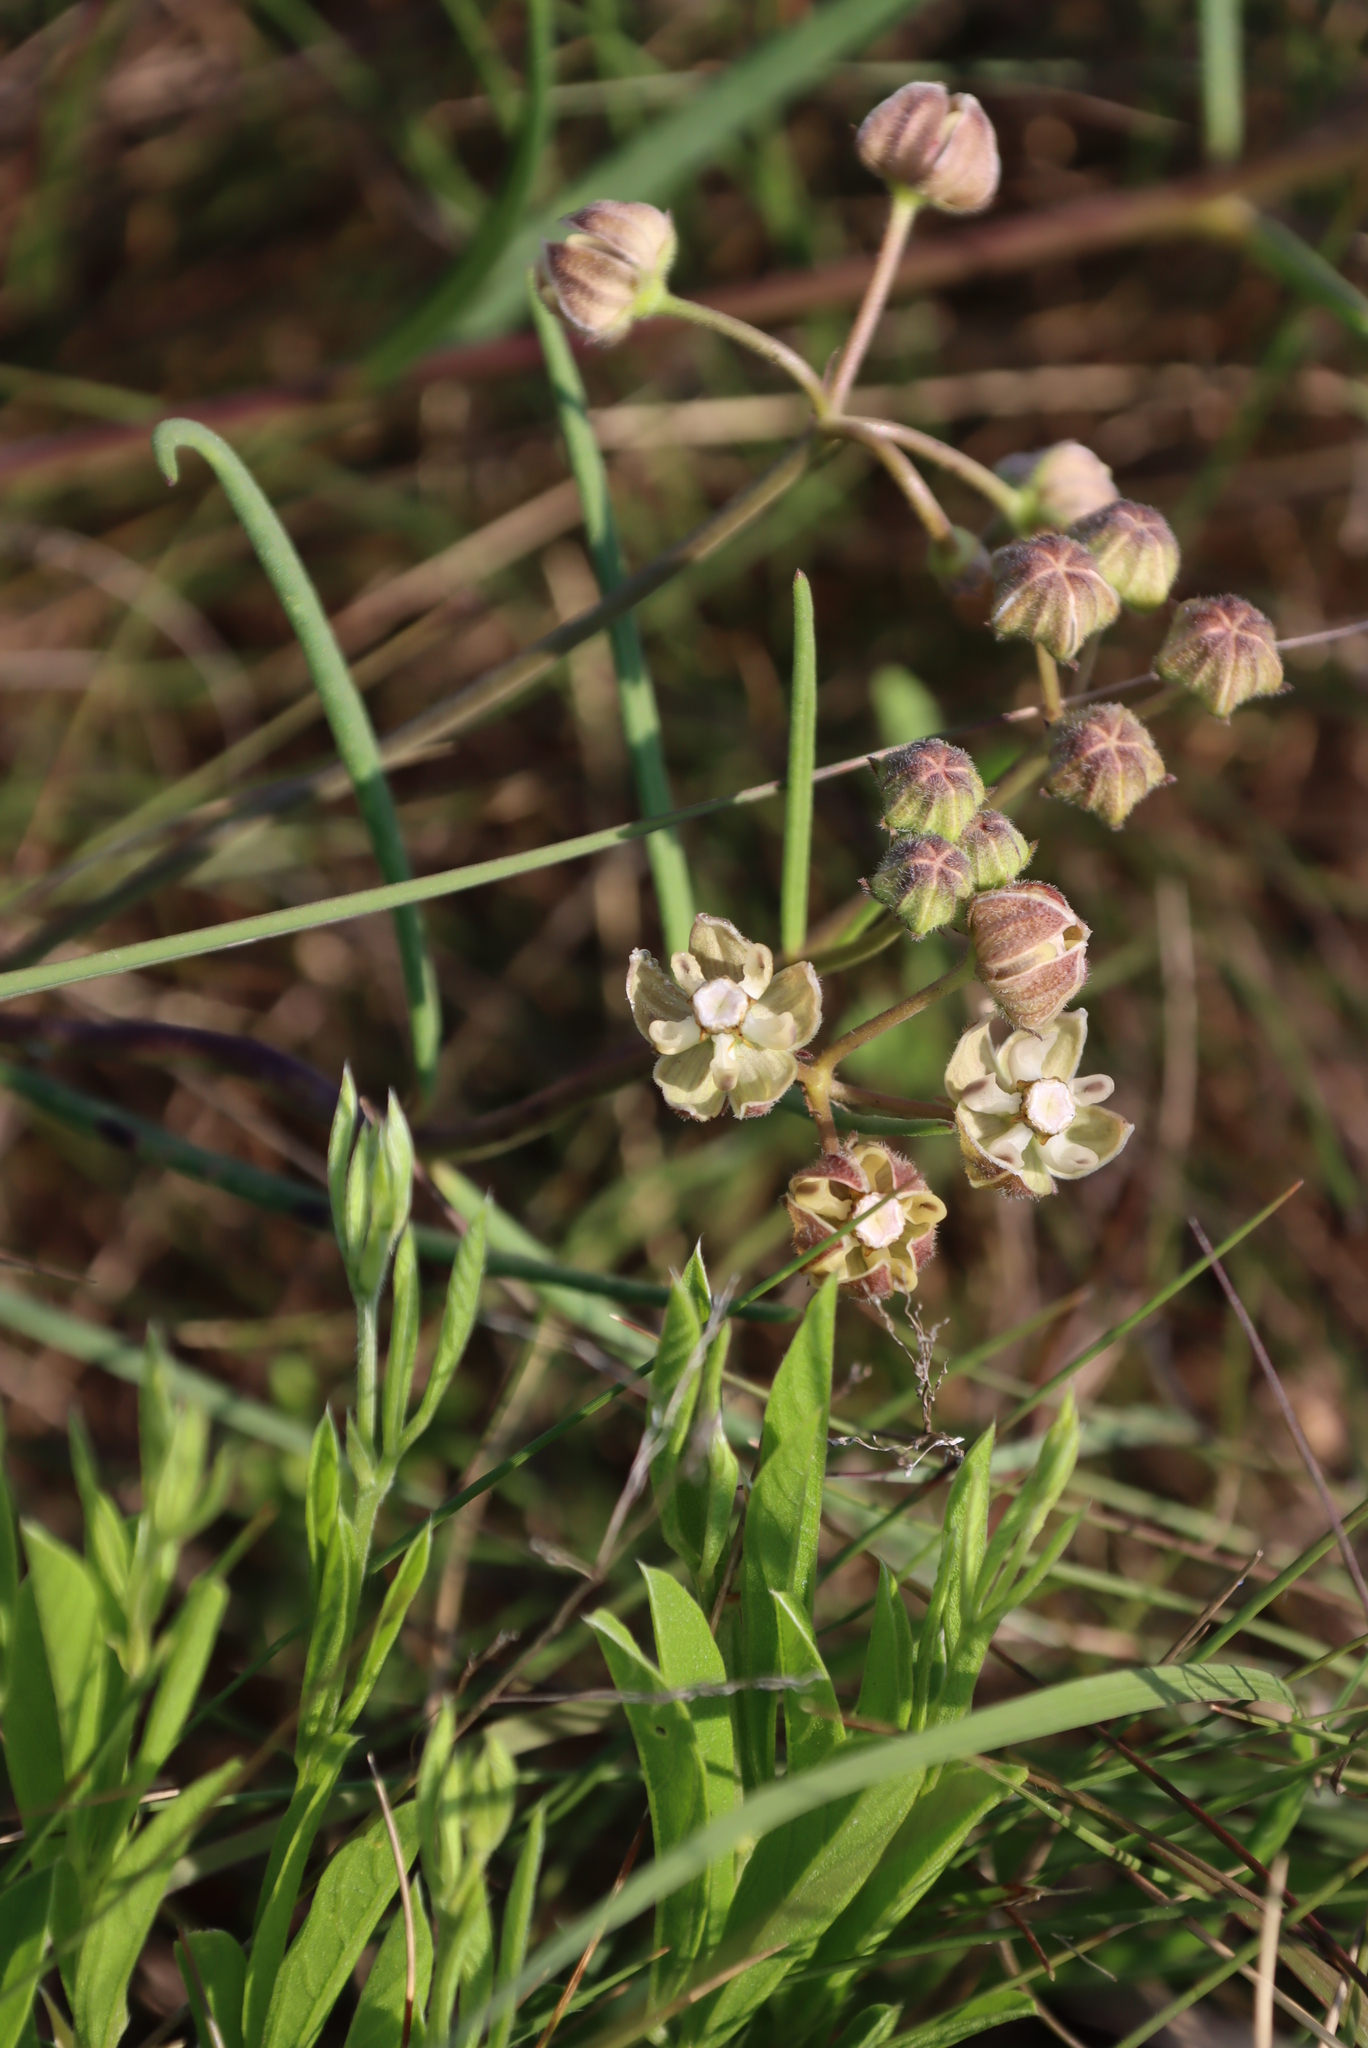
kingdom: Plantae
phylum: Tracheophyta
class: Magnoliopsida
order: Gentianales
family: Apocynaceae
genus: Asclepias
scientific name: Asclepias cucullata
